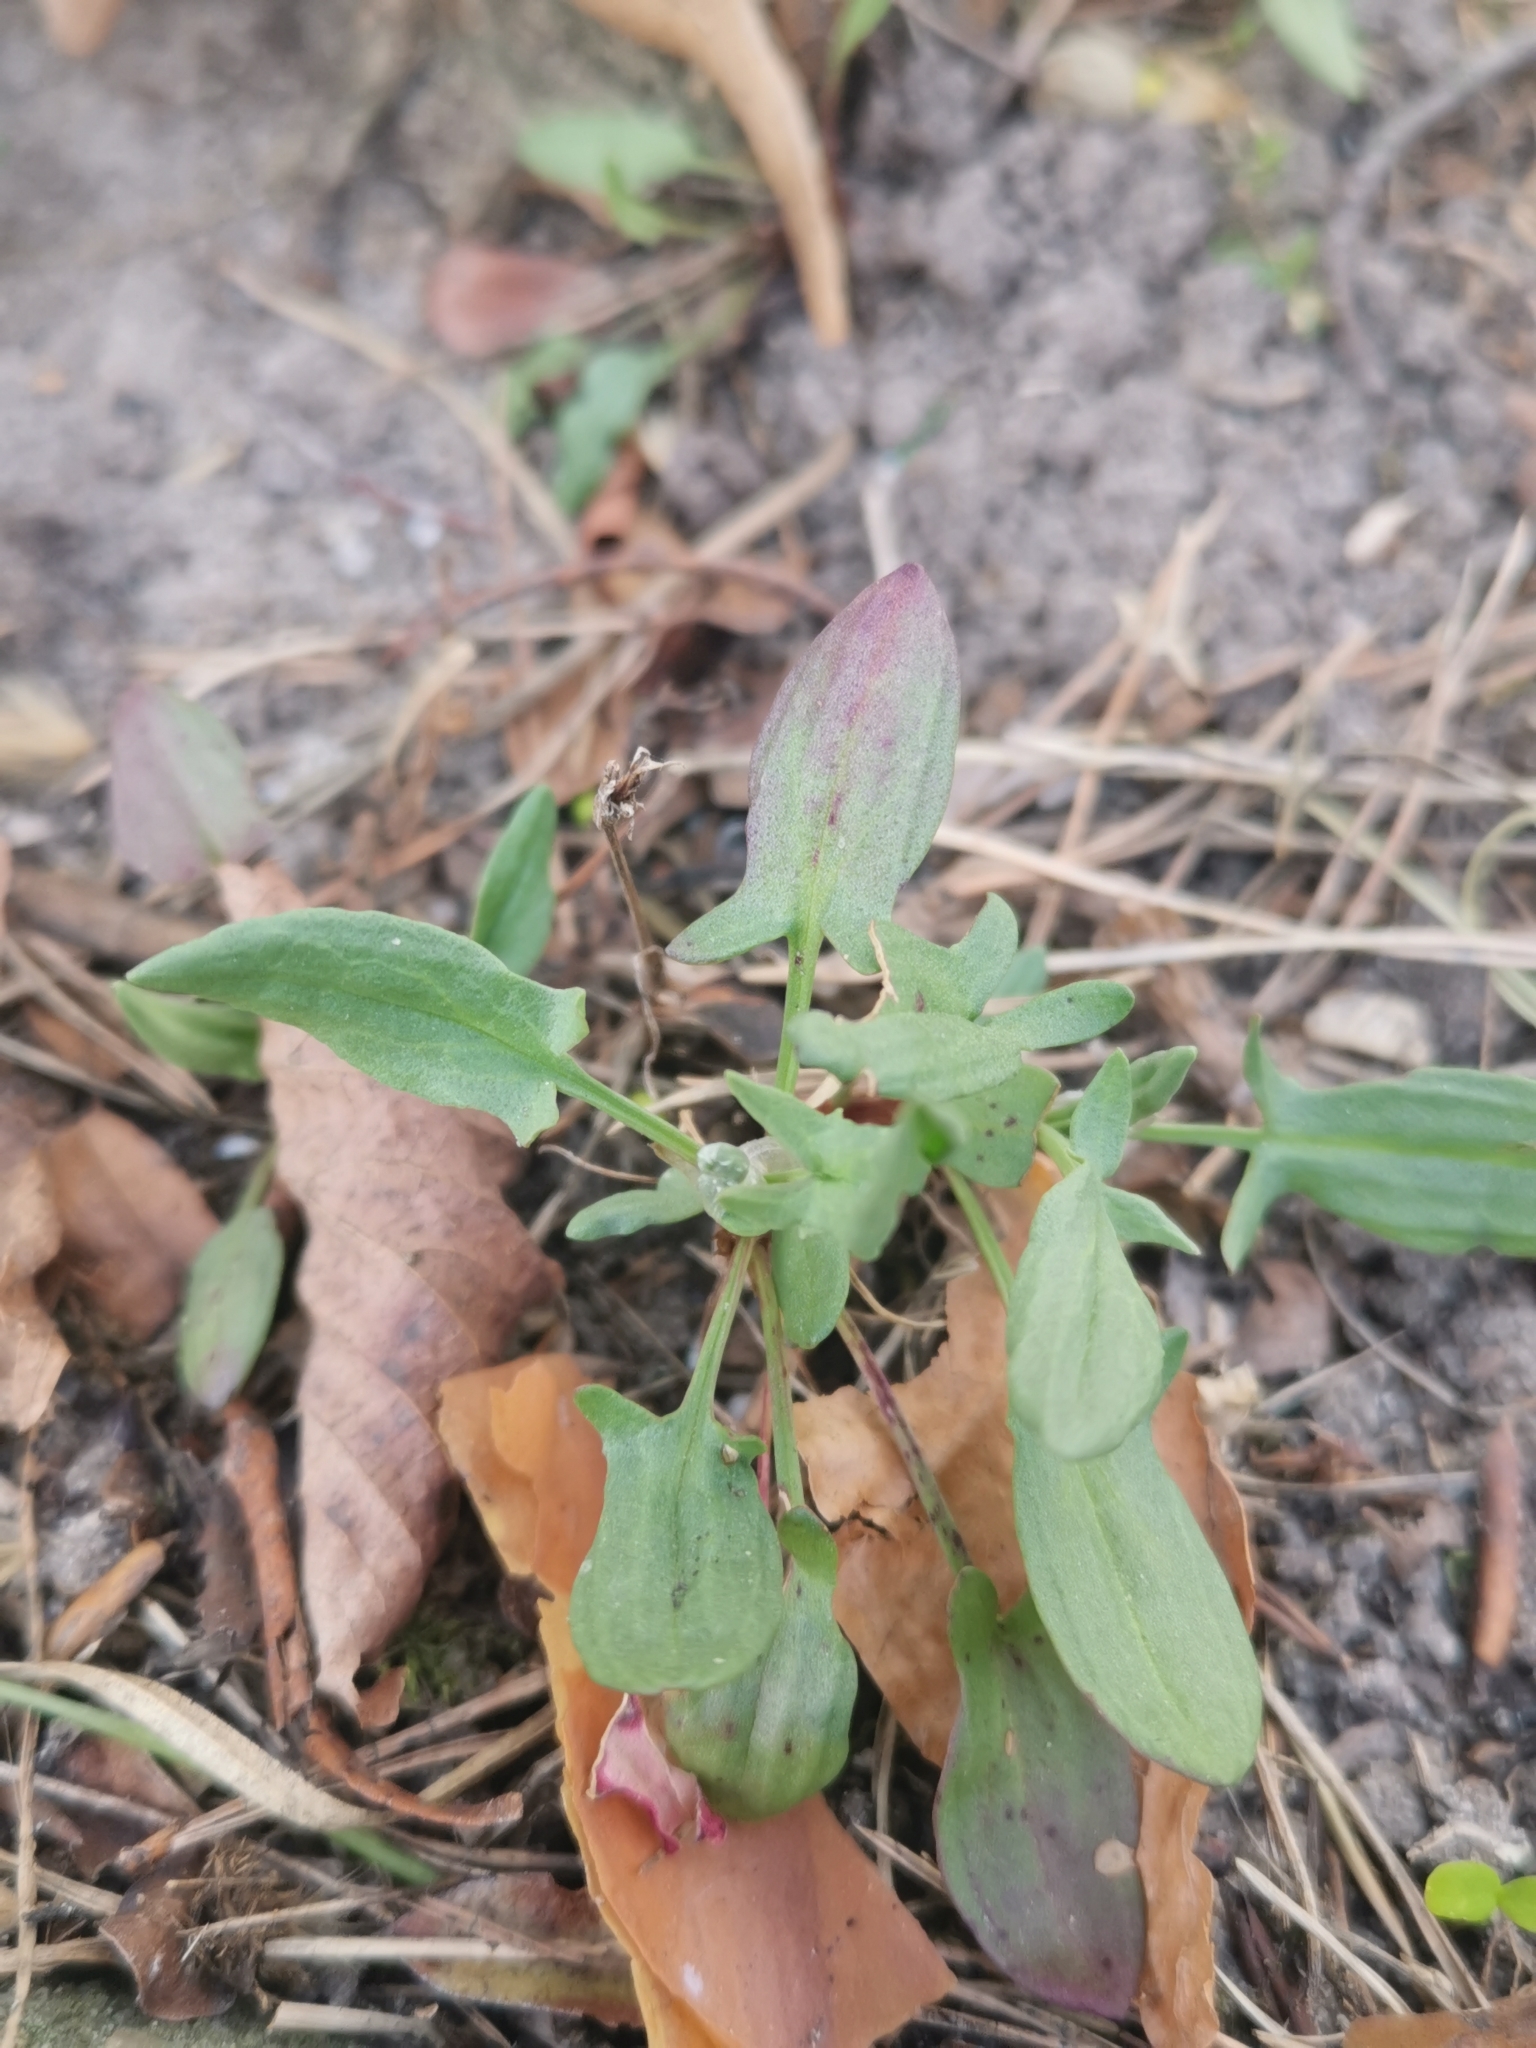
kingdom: Plantae
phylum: Tracheophyta
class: Magnoliopsida
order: Caryophyllales
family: Polygonaceae
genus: Rumex
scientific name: Rumex acetosella
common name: Common sheep sorrel
